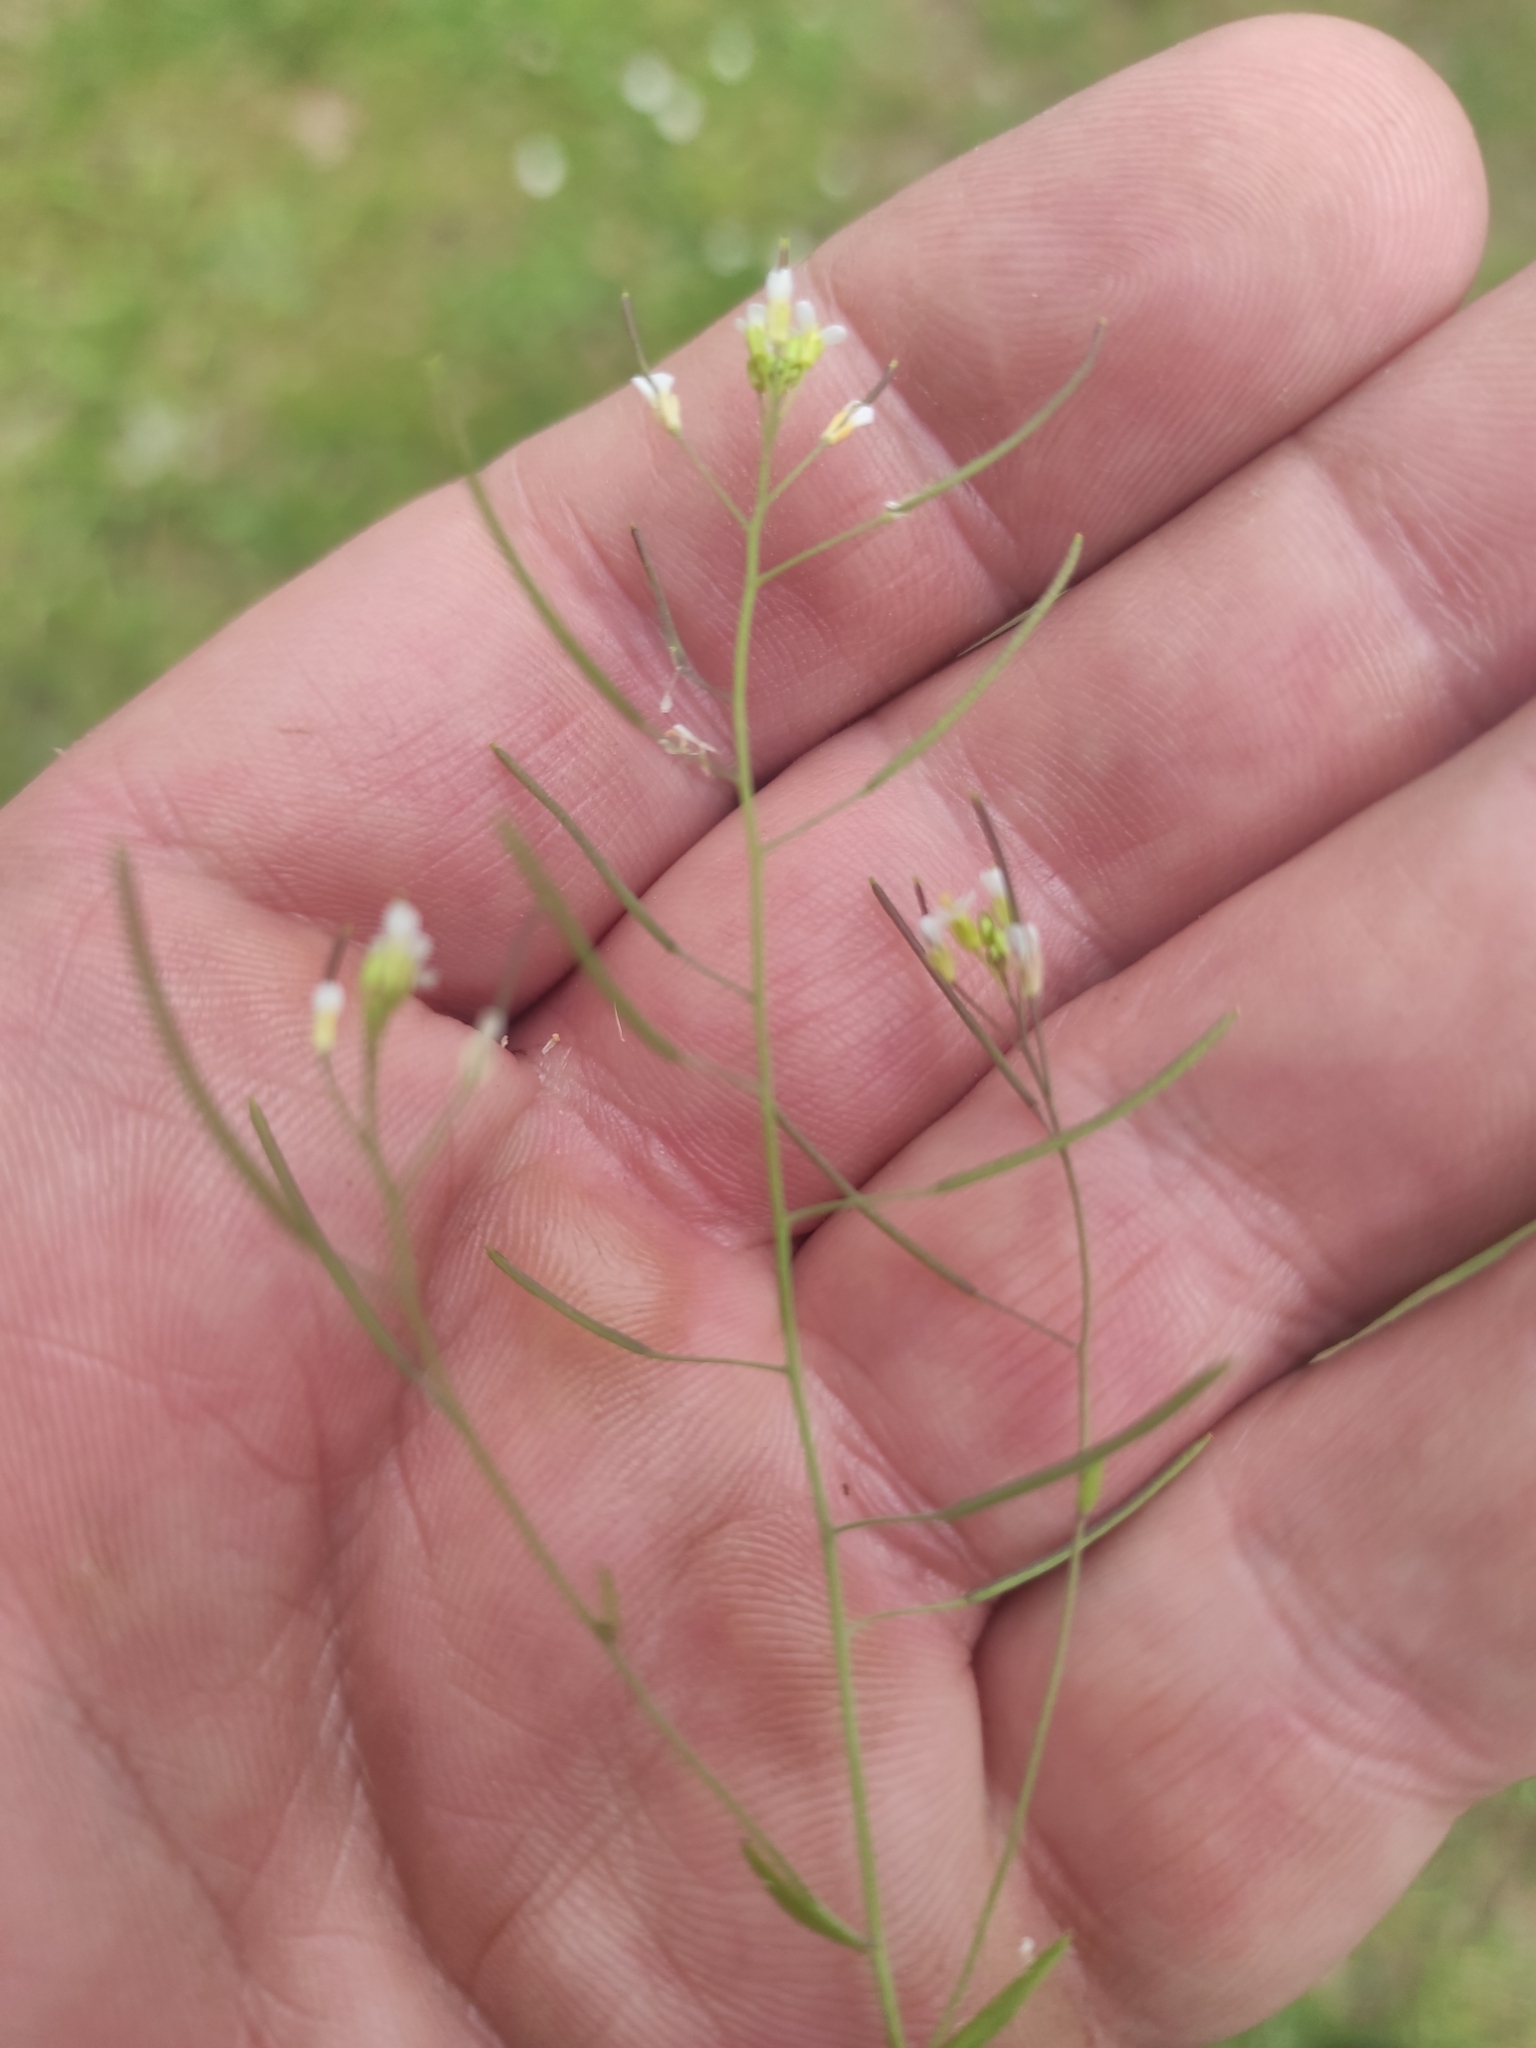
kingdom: Plantae
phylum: Tracheophyta
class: Magnoliopsida
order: Brassicales
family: Brassicaceae
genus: Arabidopsis
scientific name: Arabidopsis thaliana
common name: Thale cress
